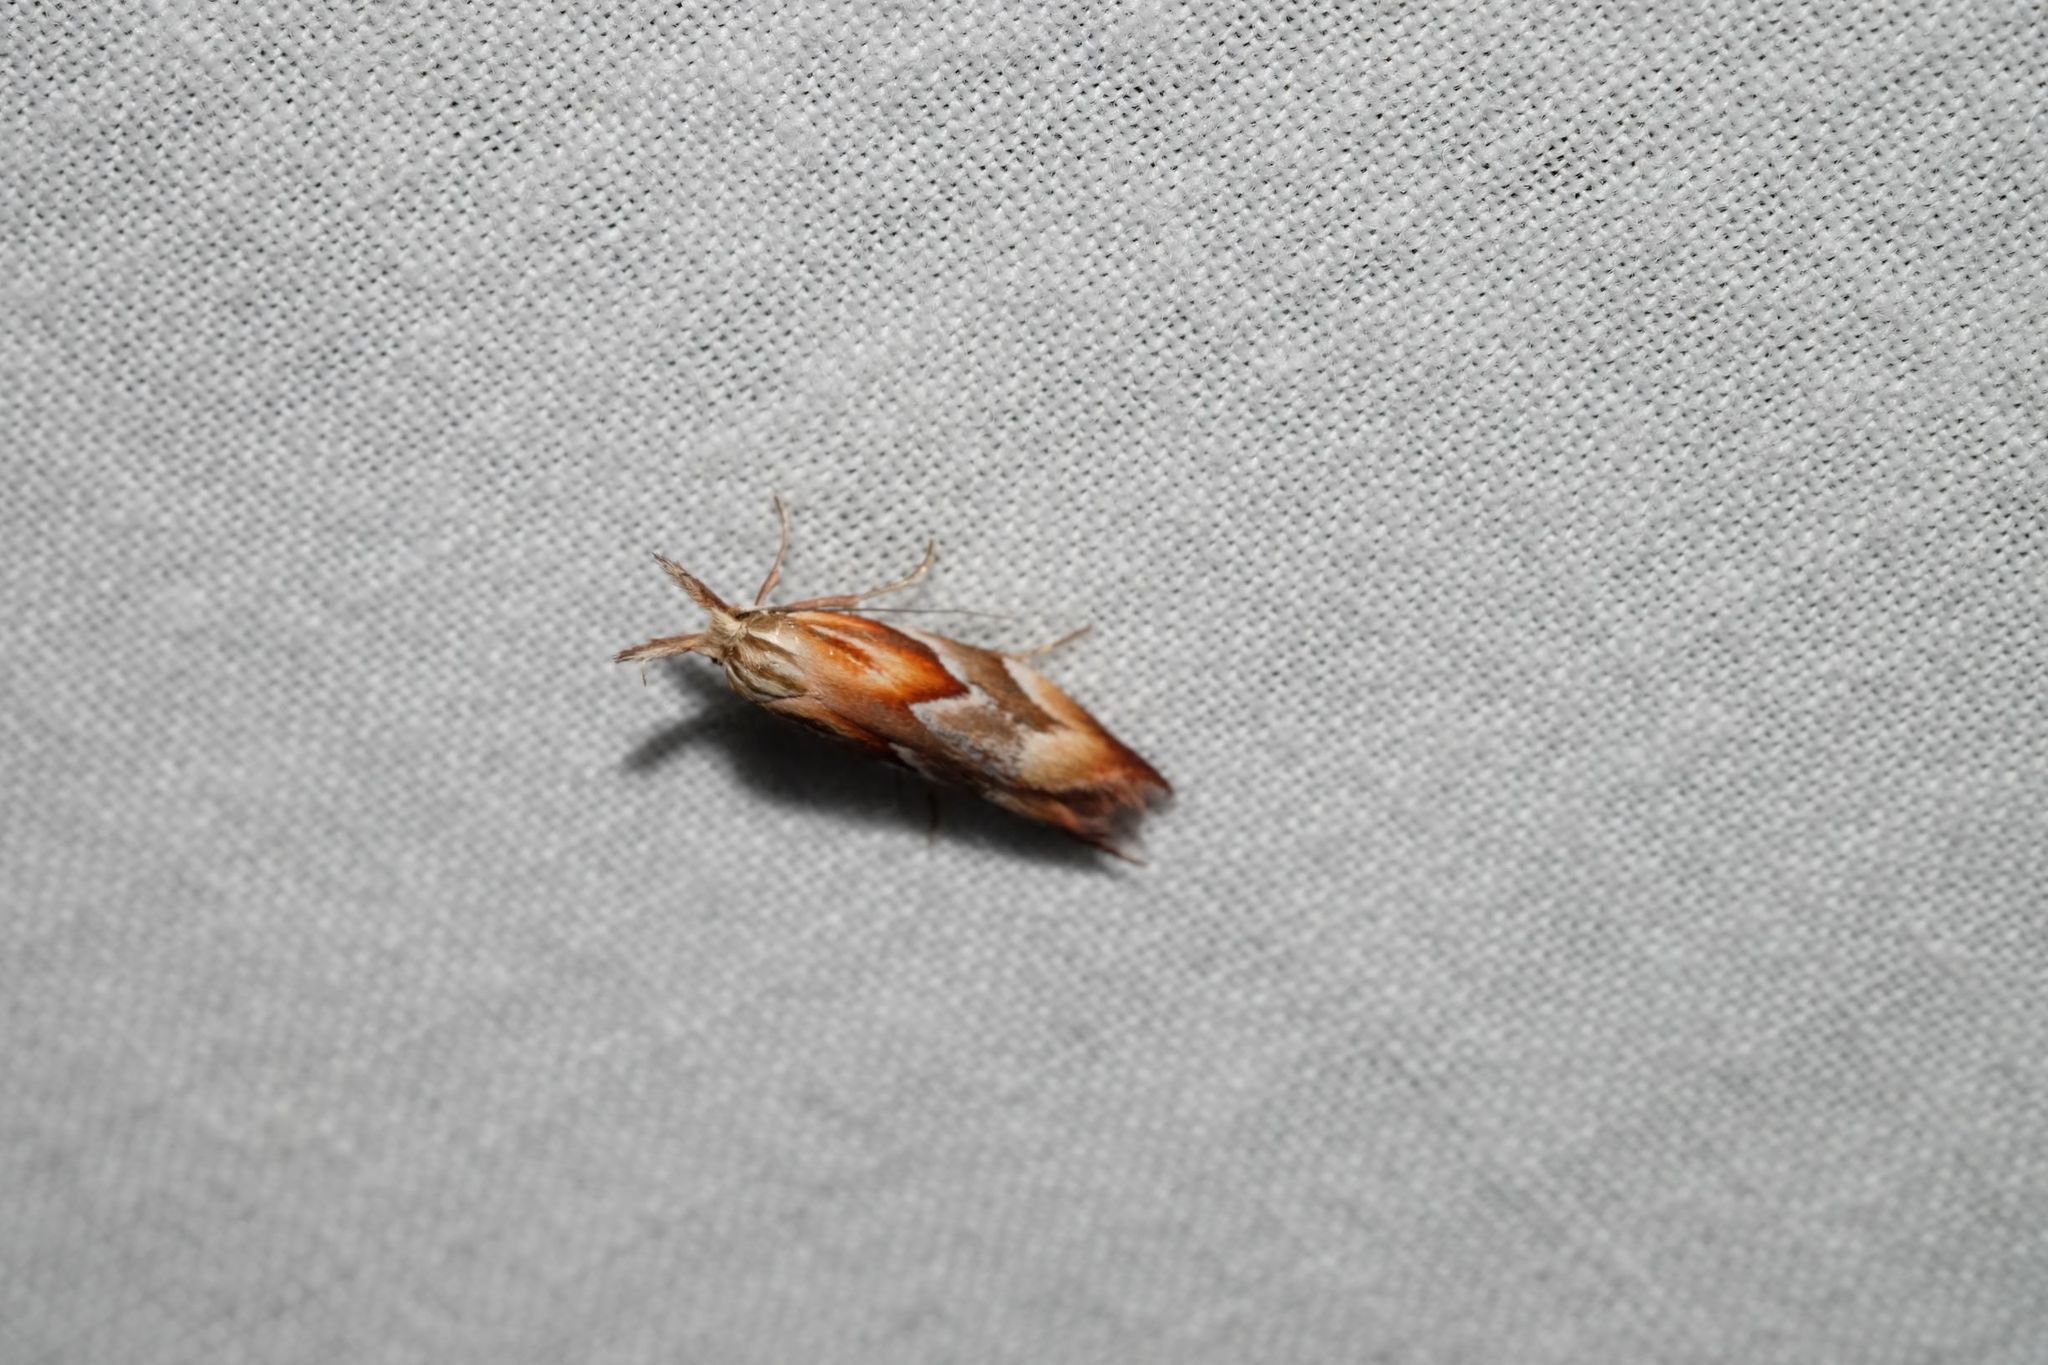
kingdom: Animalia
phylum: Arthropoda
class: Insecta
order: Lepidoptera
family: Oecophoridae
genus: Deigmoesta
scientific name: Deigmoesta lithocosma
